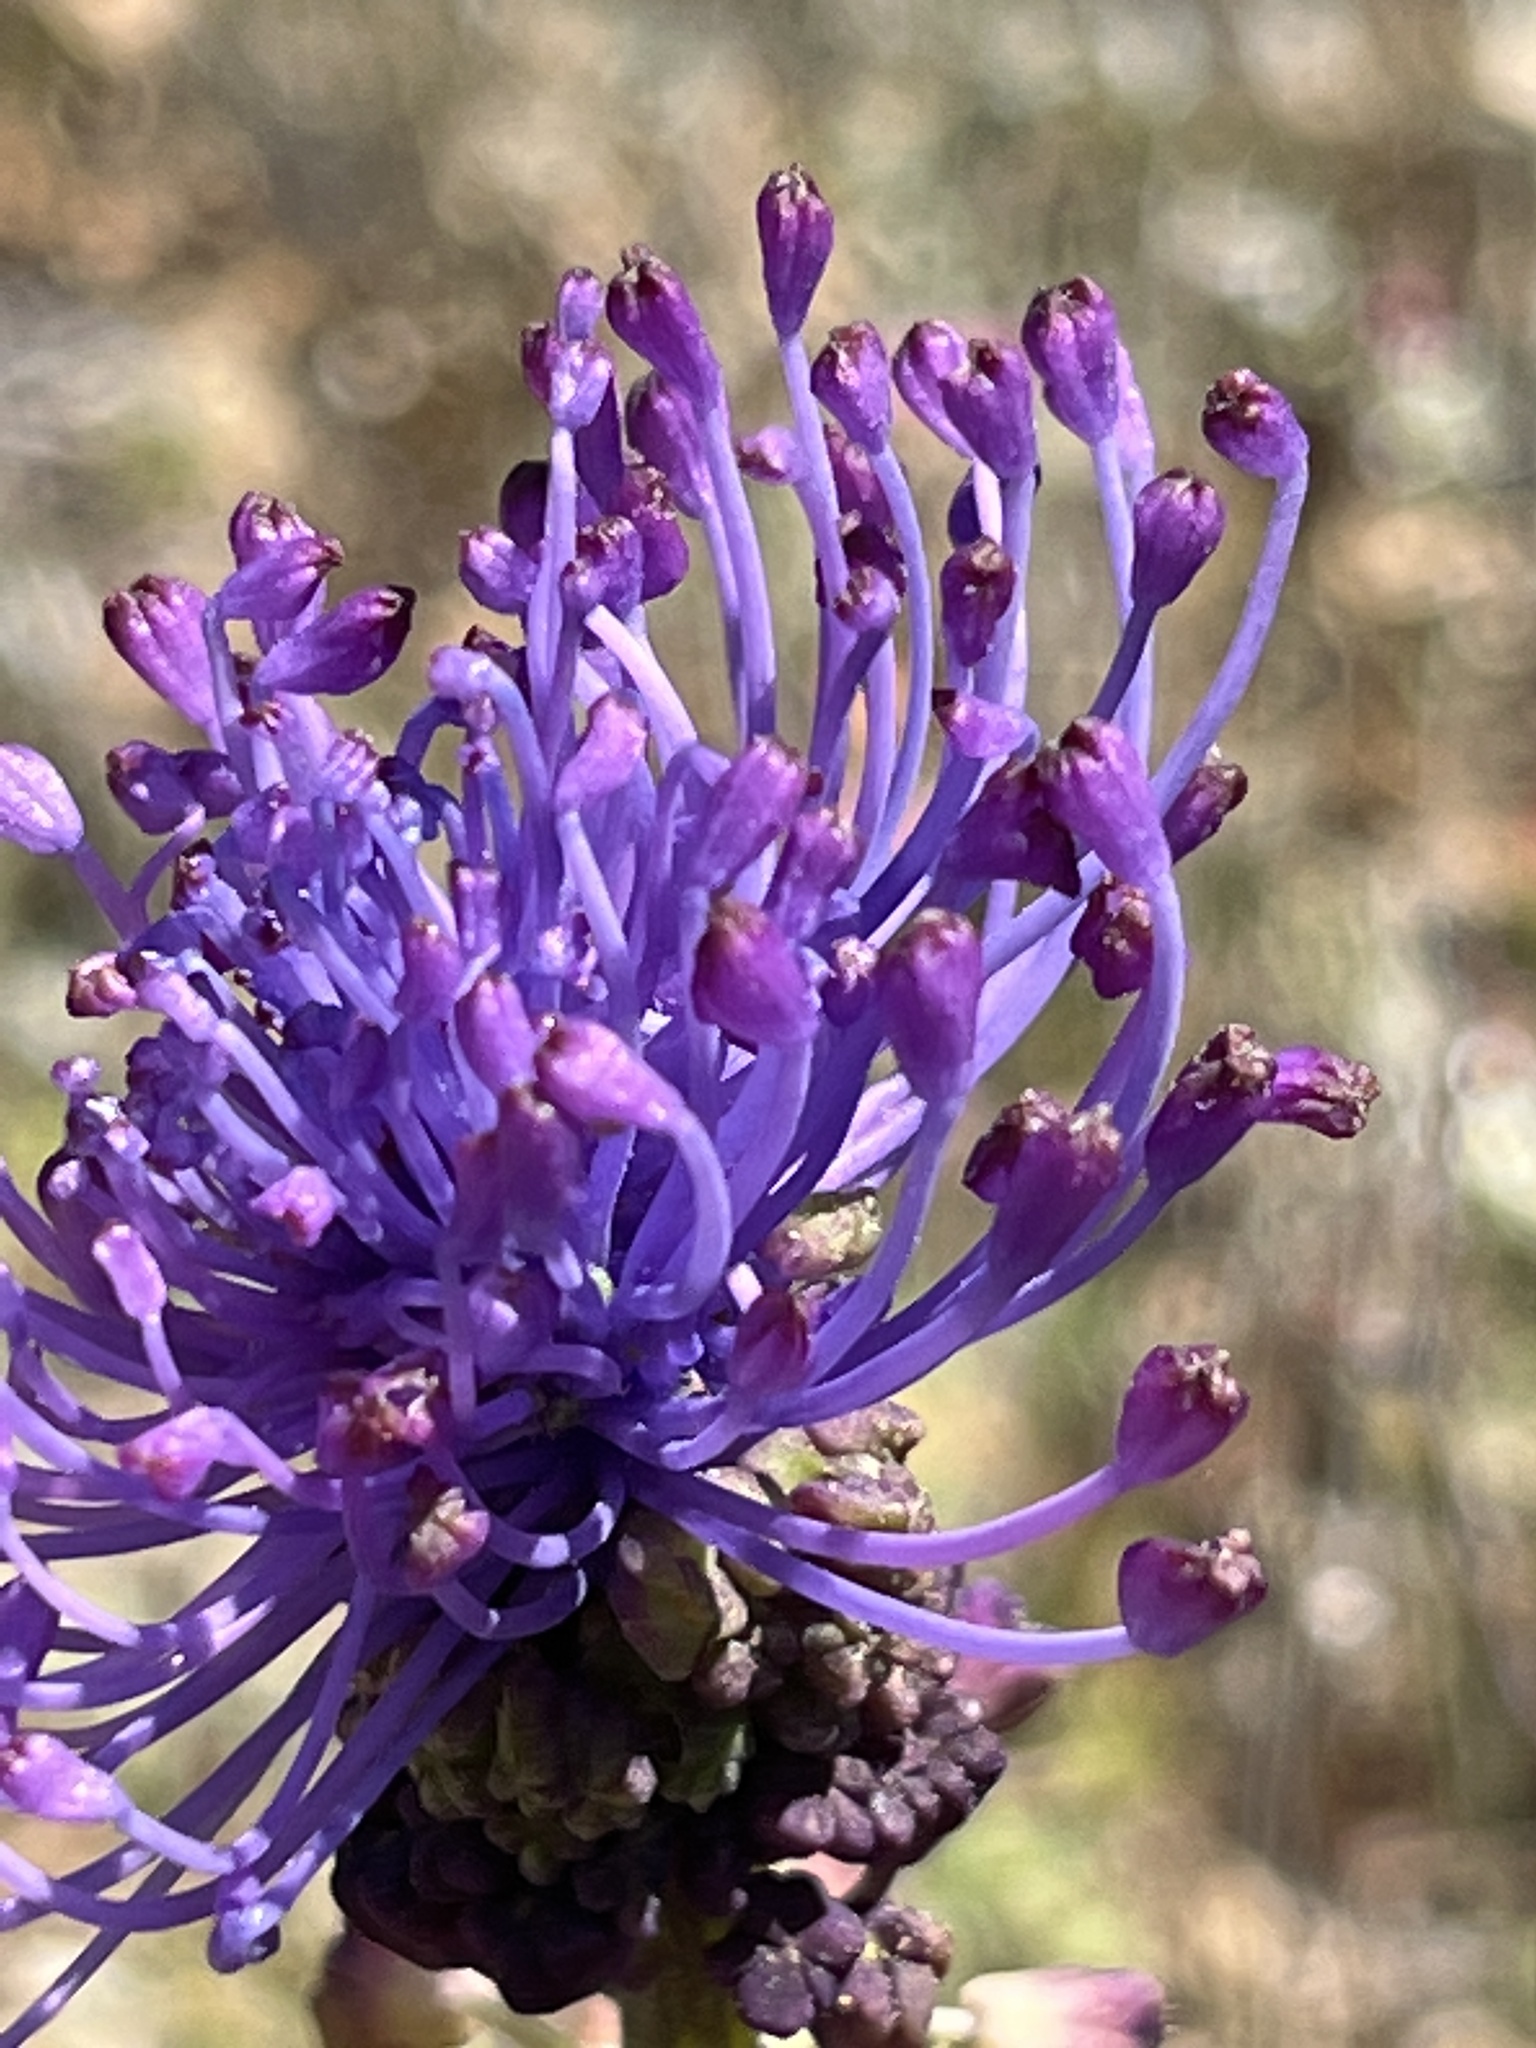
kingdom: Plantae
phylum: Tracheophyta
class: Liliopsida
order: Asparagales
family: Asparagaceae
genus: Muscari
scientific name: Muscari comosum
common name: Tassel hyacinth
